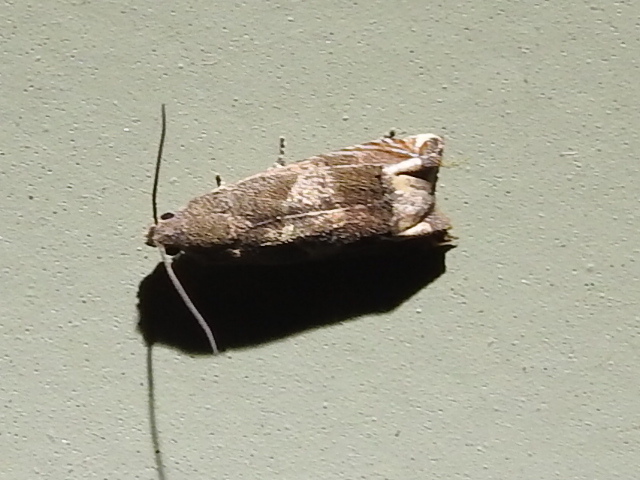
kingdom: Animalia
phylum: Arthropoda
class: Insecta
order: Lepidoptera
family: Tortricidae
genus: Epiblema
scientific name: Epiblema strenuana
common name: Ragweed borer moth
